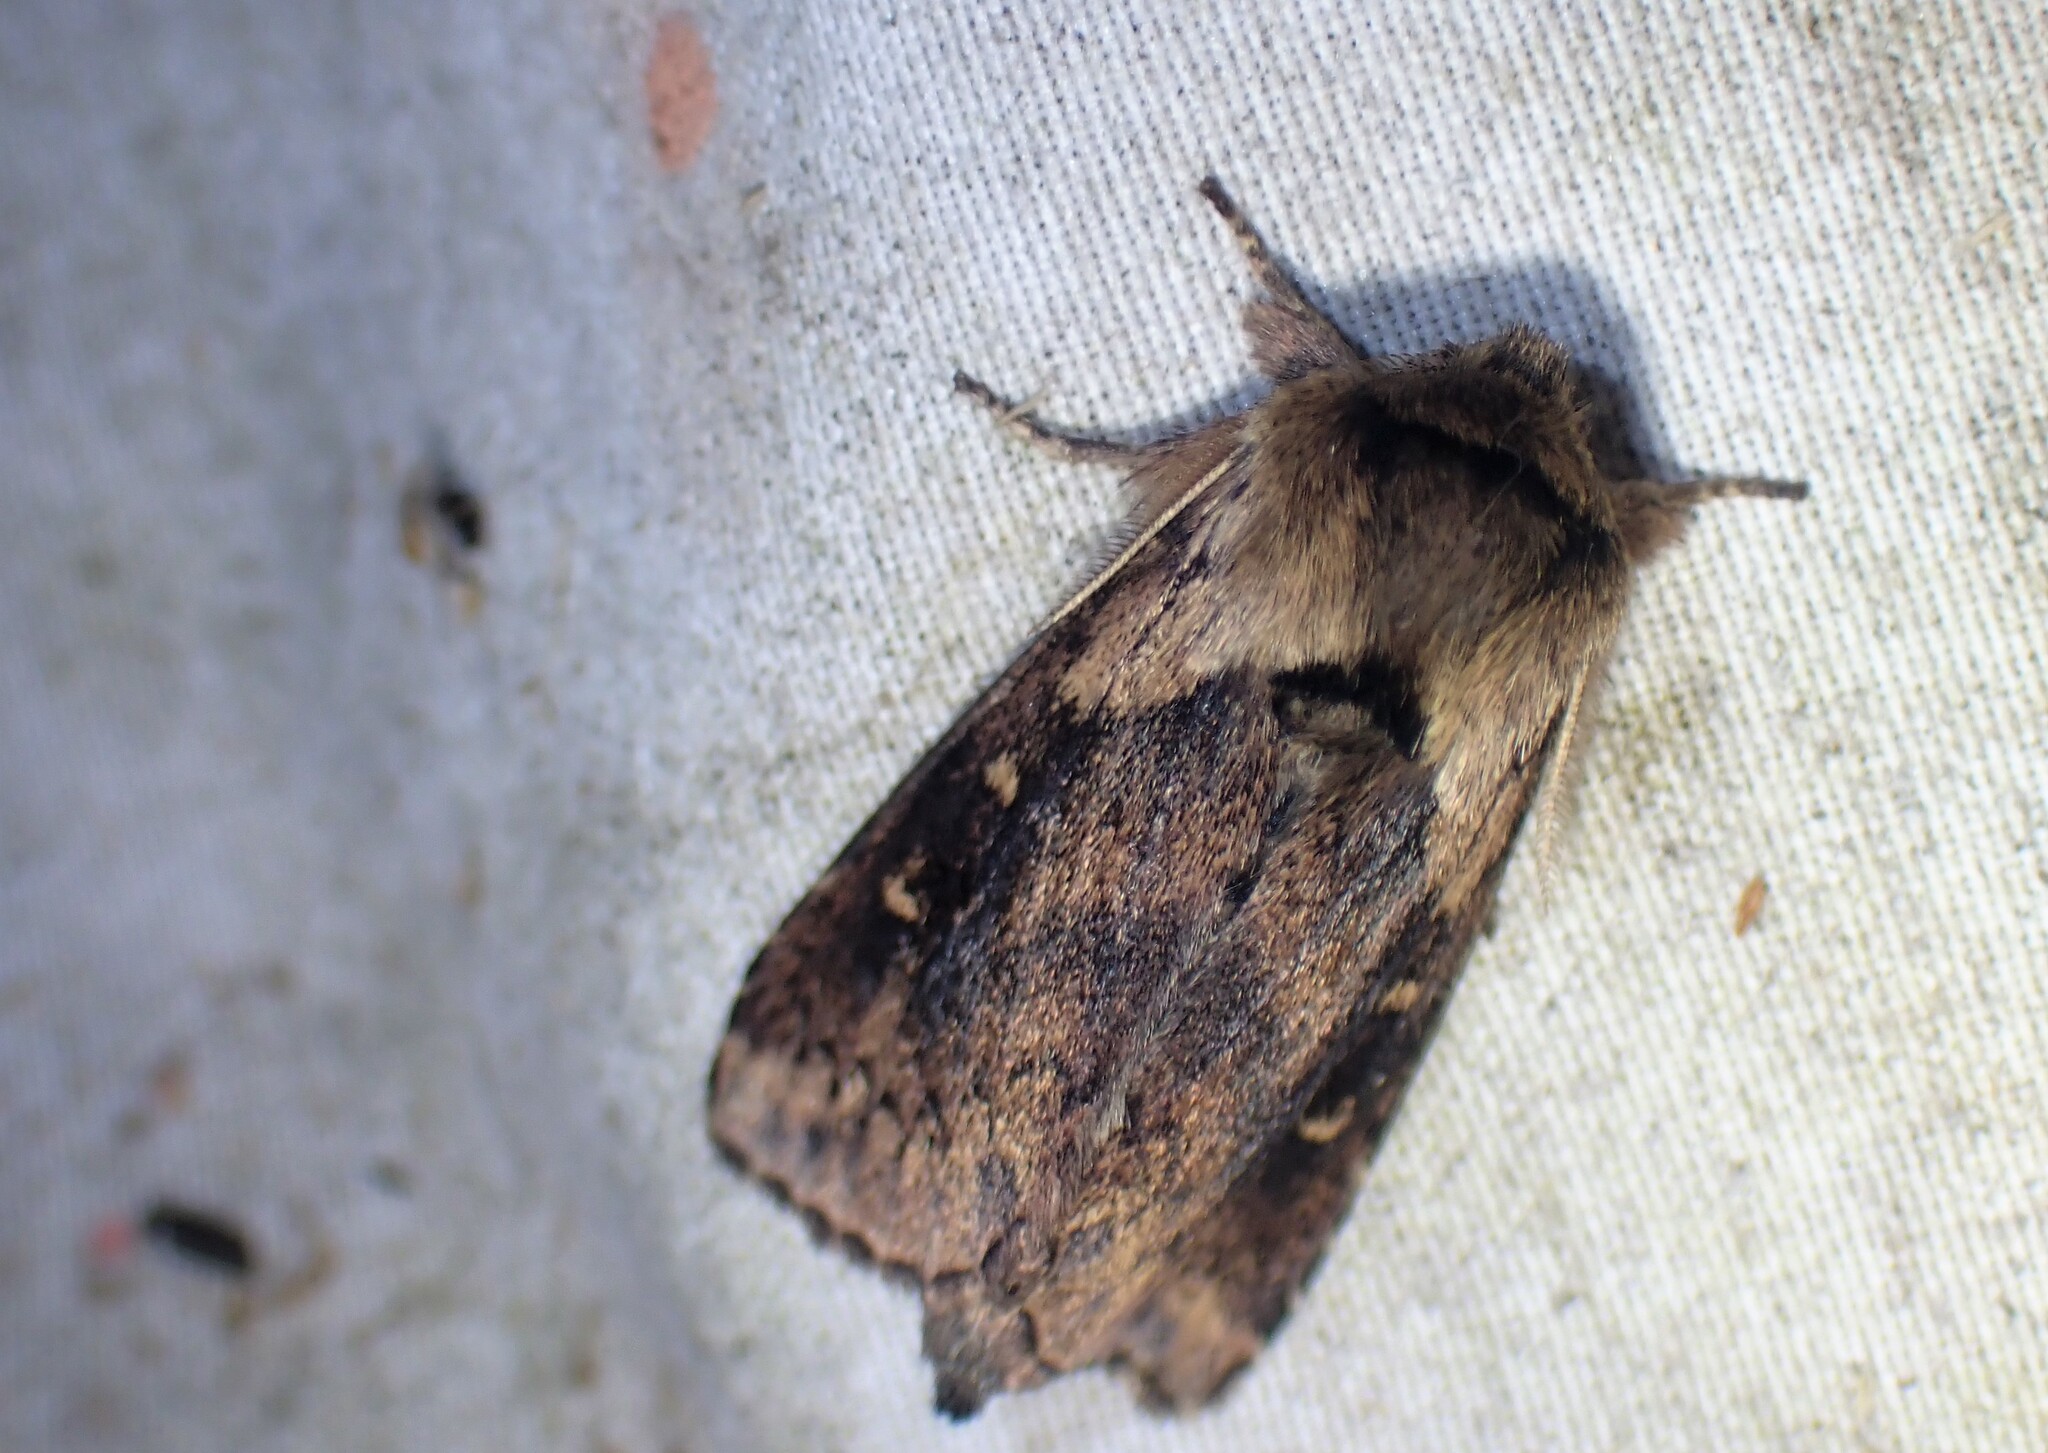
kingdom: Animalia
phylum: Arthropoda
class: Insecta
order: Lepidoptera
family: Noctuidae
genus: Bellura
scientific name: Bellura vulnifica
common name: Black-tailed diver moth
